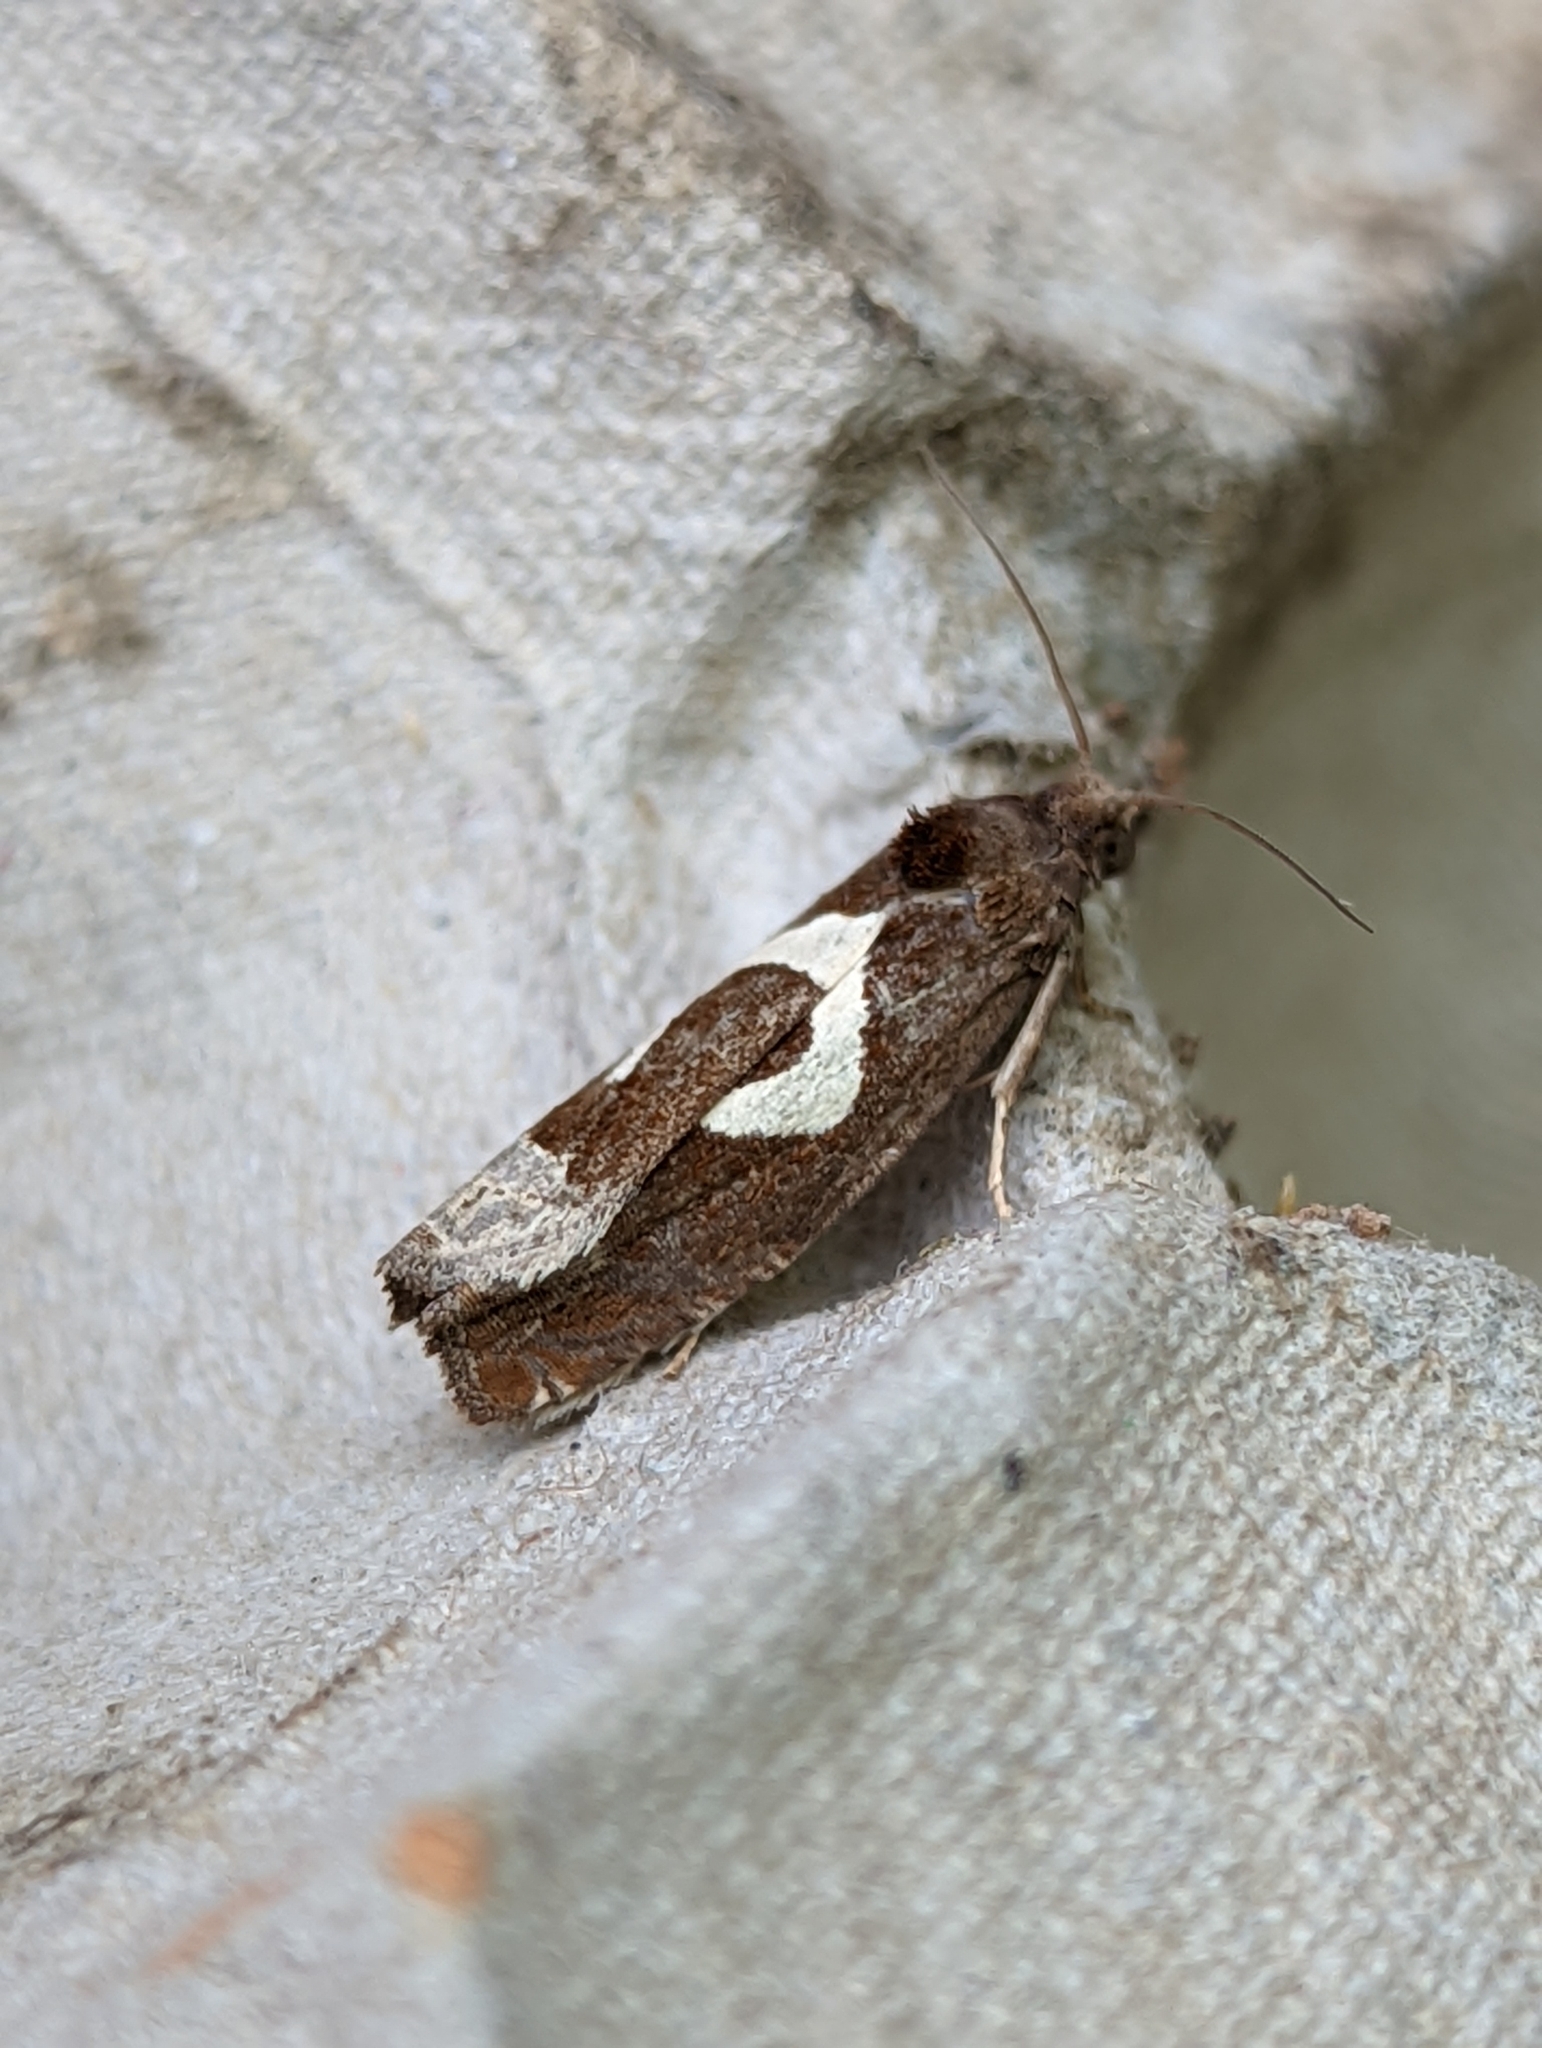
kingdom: Animalia
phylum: Arthropoda
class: Insecta
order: Lepidoptera
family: Tortricidae
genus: Epiblema
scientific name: Epiblema foenella
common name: White-foot bell
